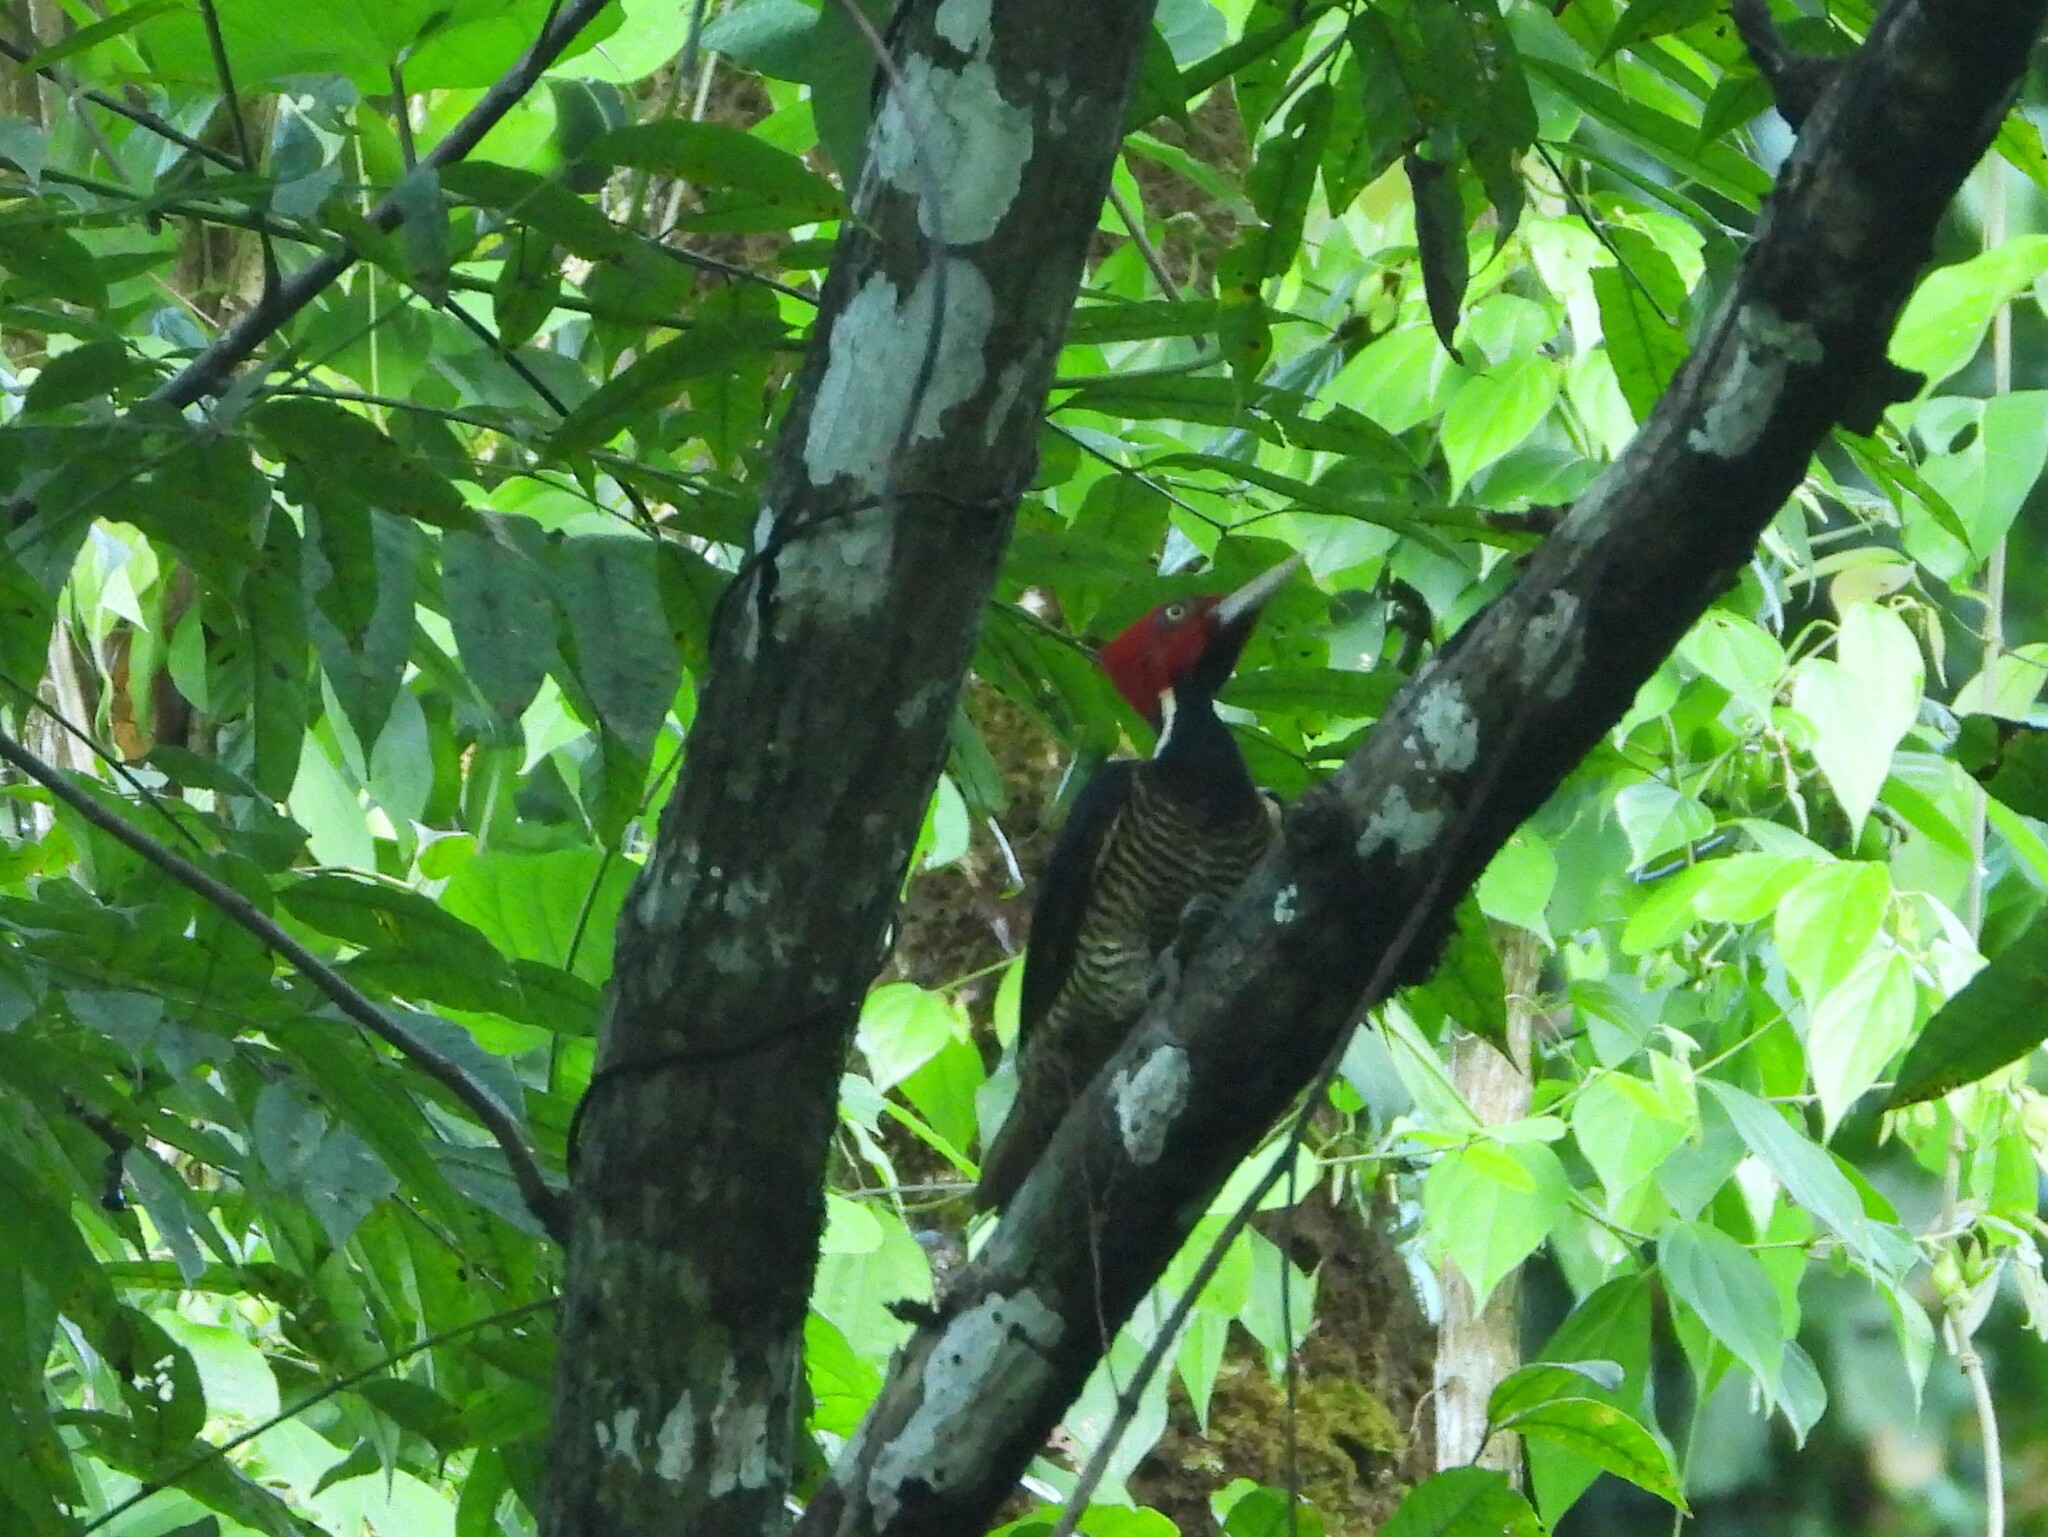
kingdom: Animalia
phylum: Chordata
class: Aves
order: Piciformes
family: Picidae
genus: Campephilus
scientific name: Campephilus guatemalensis
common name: Pale-billed woodpecker
